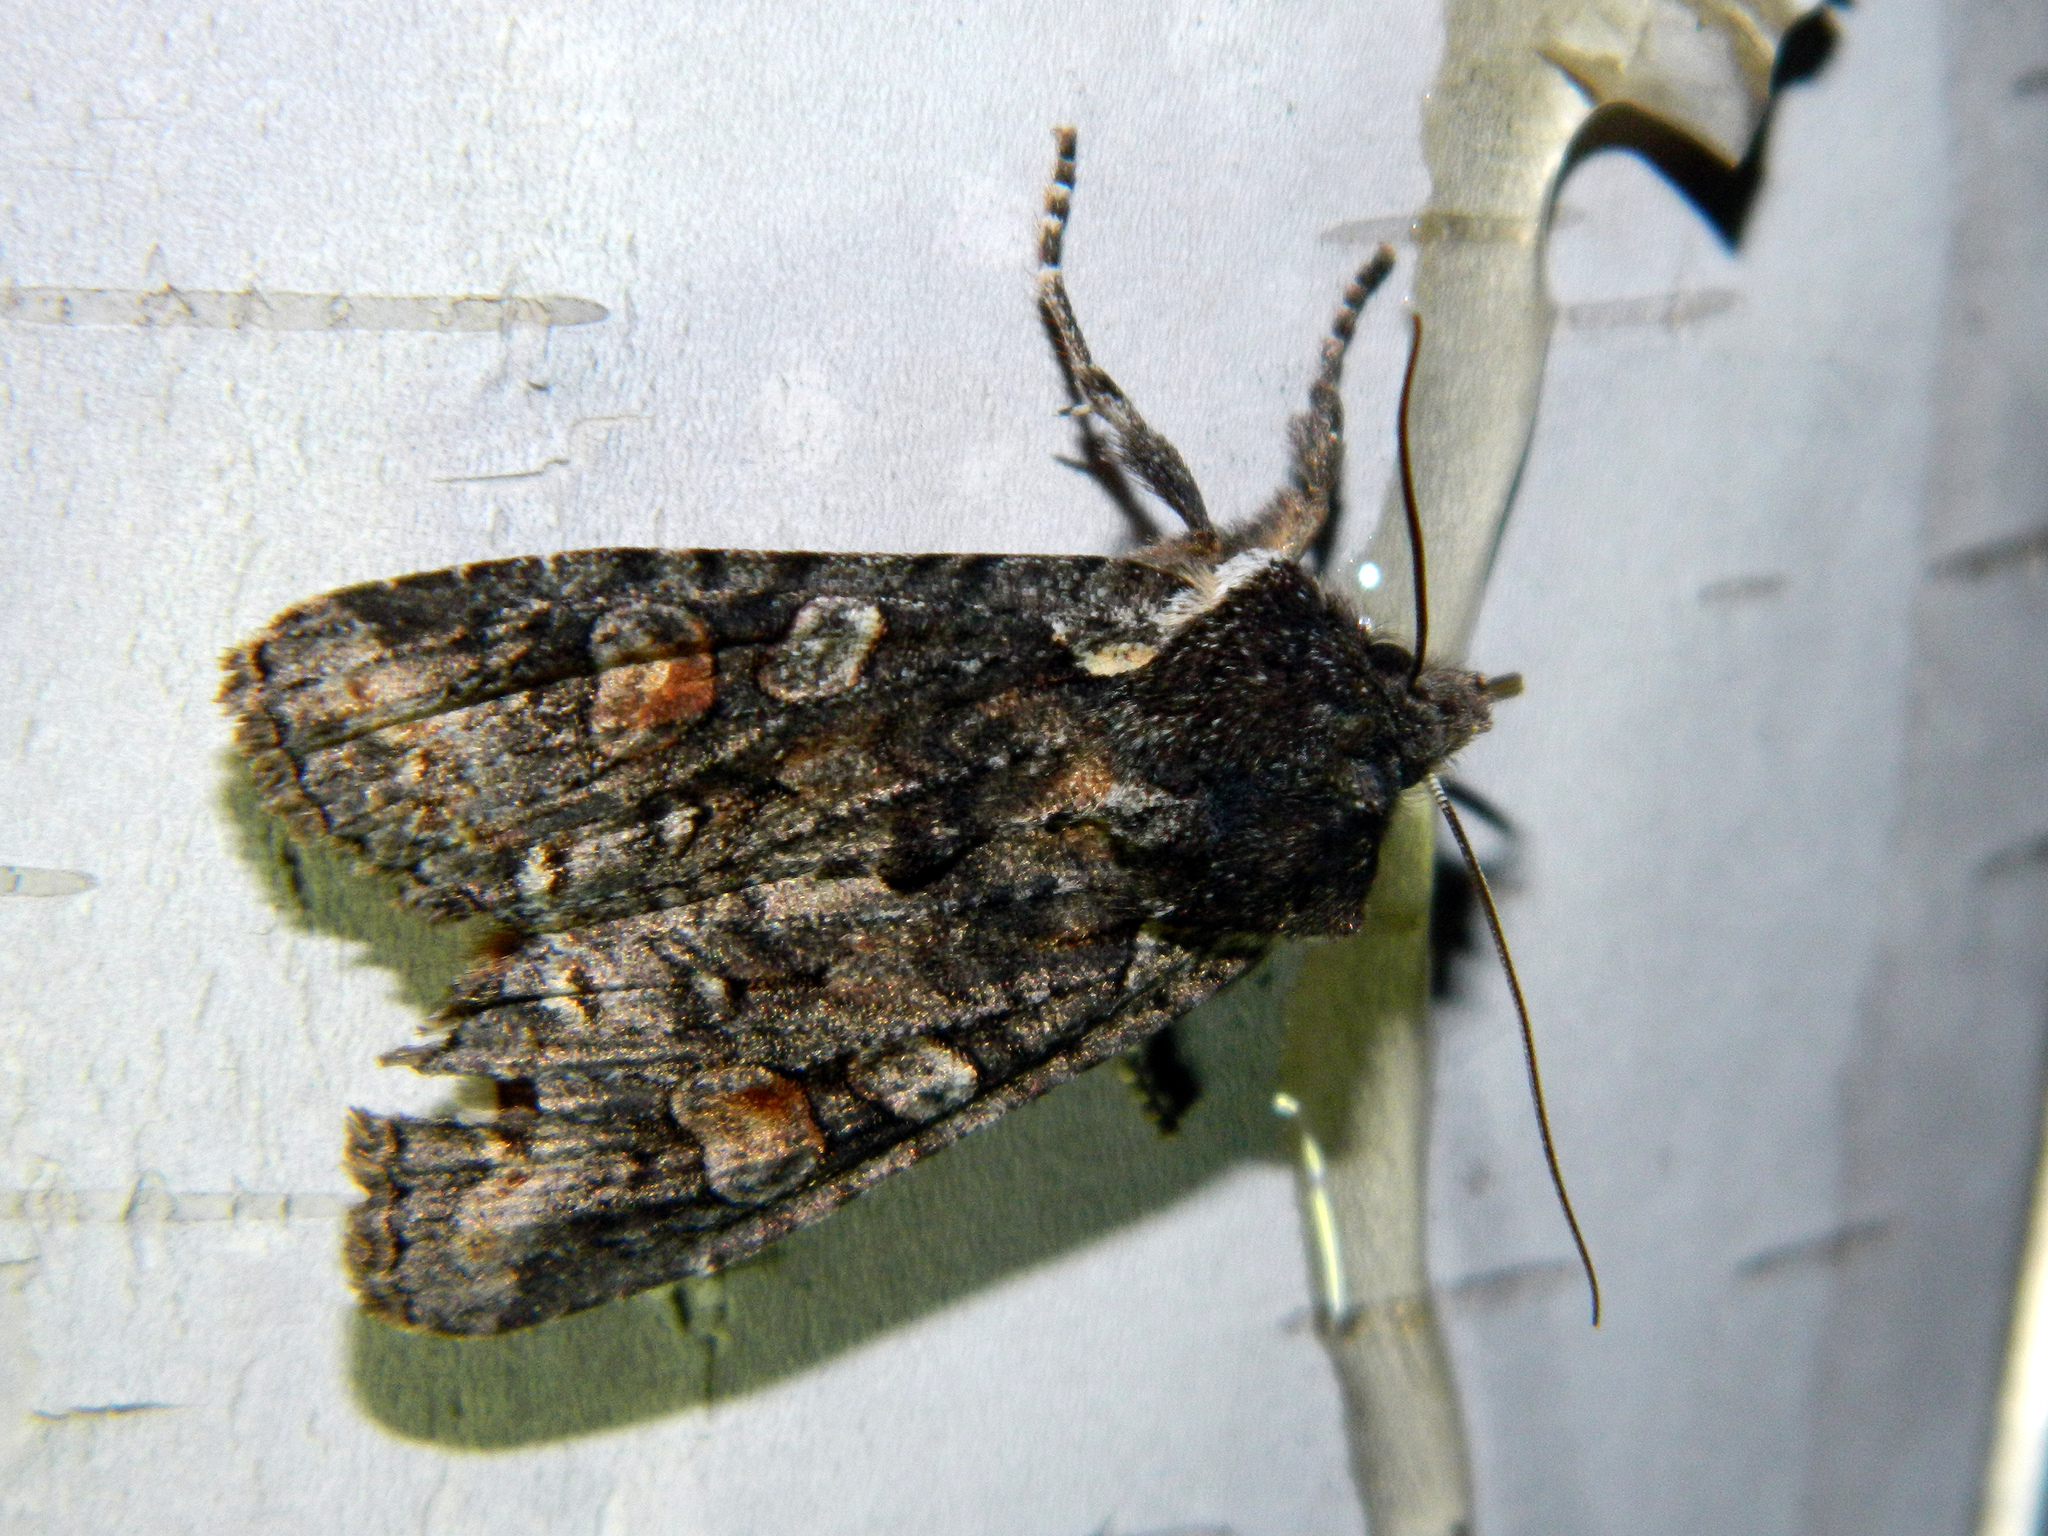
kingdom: Animalia
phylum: Arthropoda
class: Insecta
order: Lepidoptera
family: Noctuidae
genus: Lithophane
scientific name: Lithophane pexata
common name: Plush-naped pinion moth
